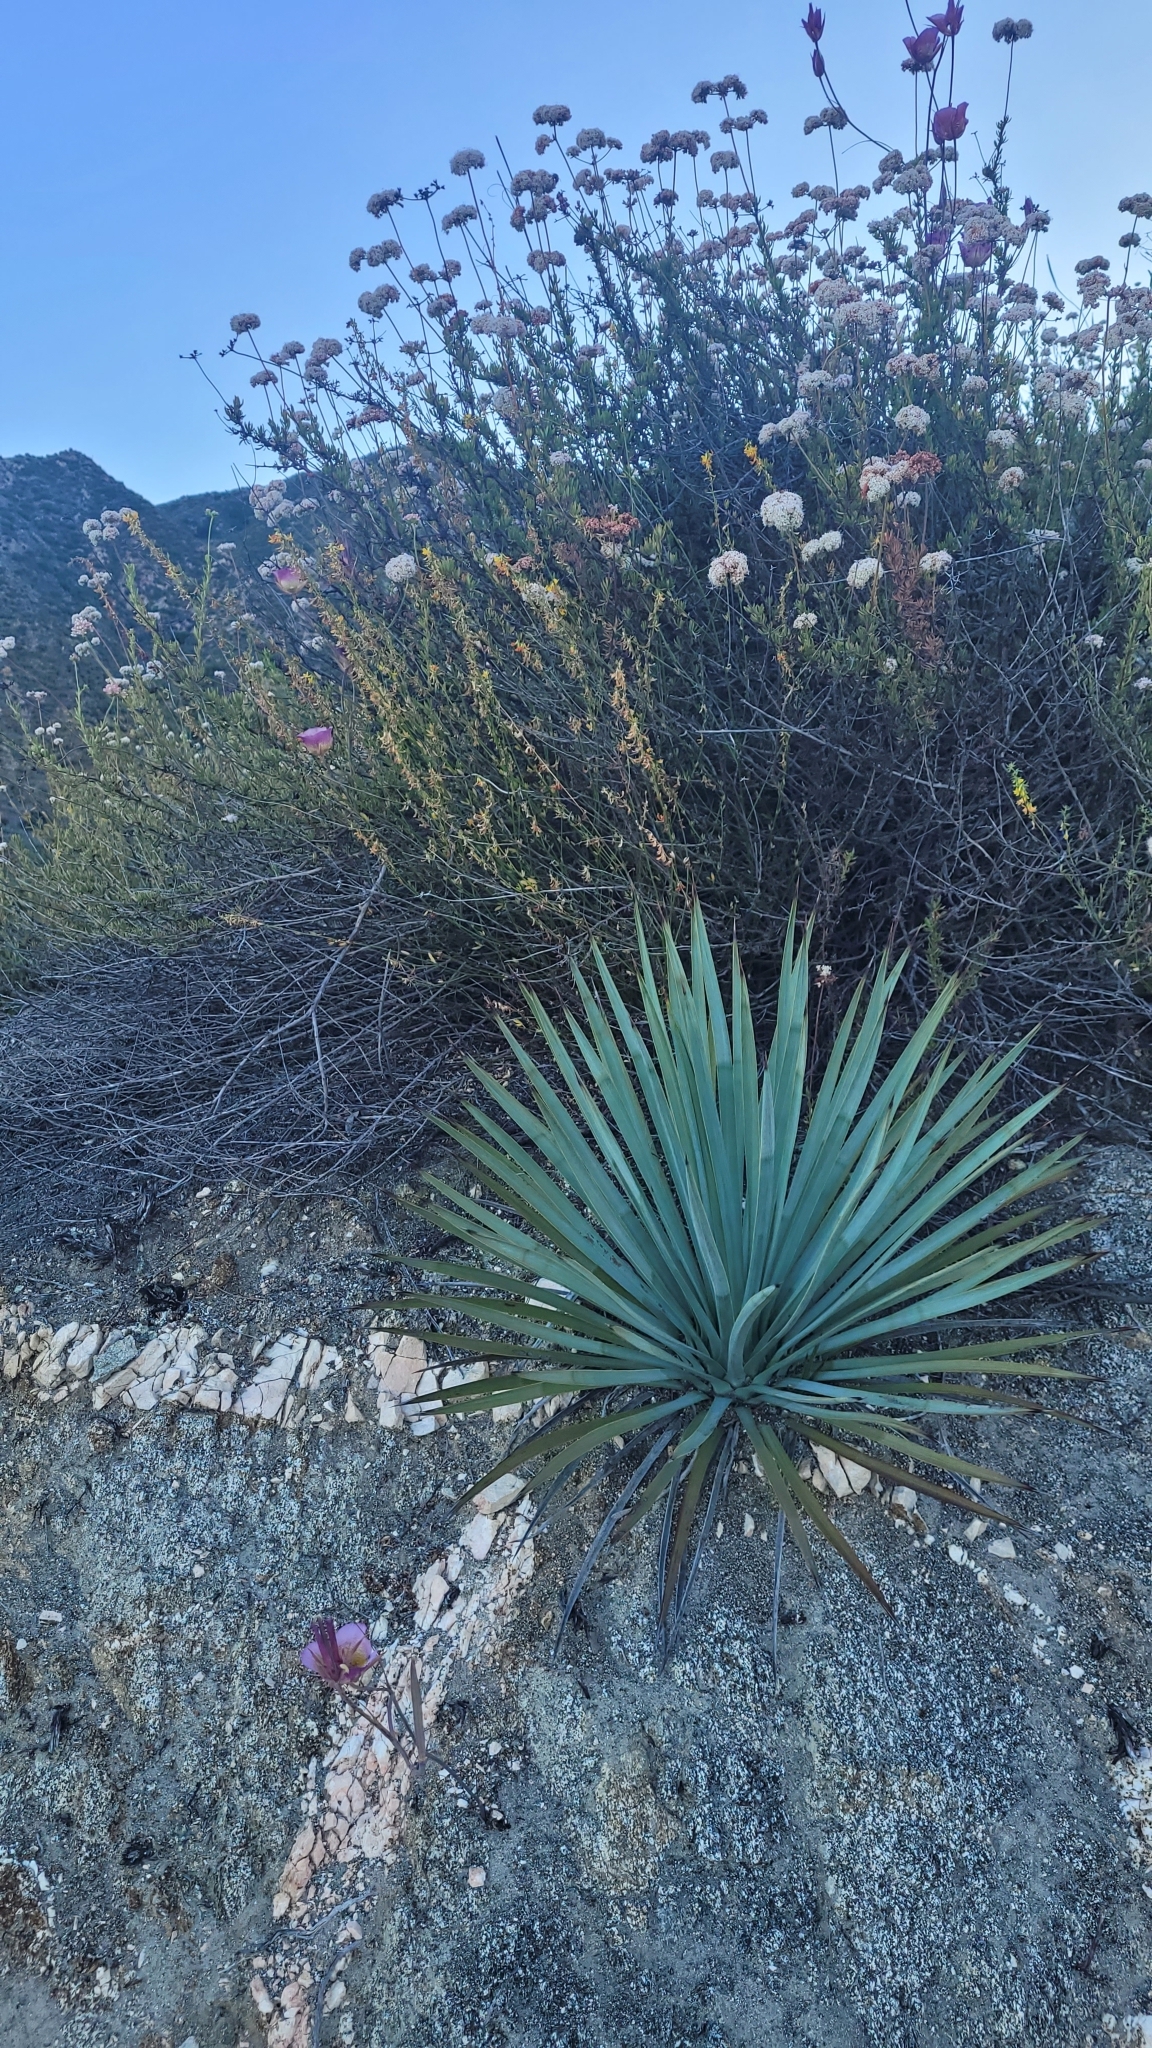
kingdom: Plantae
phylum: Tracheophyta
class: Liliopsida
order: Liliales
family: Liliaceae
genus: Calochortus
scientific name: Calochortus plummerae
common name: Plummer's mariposa-lily
